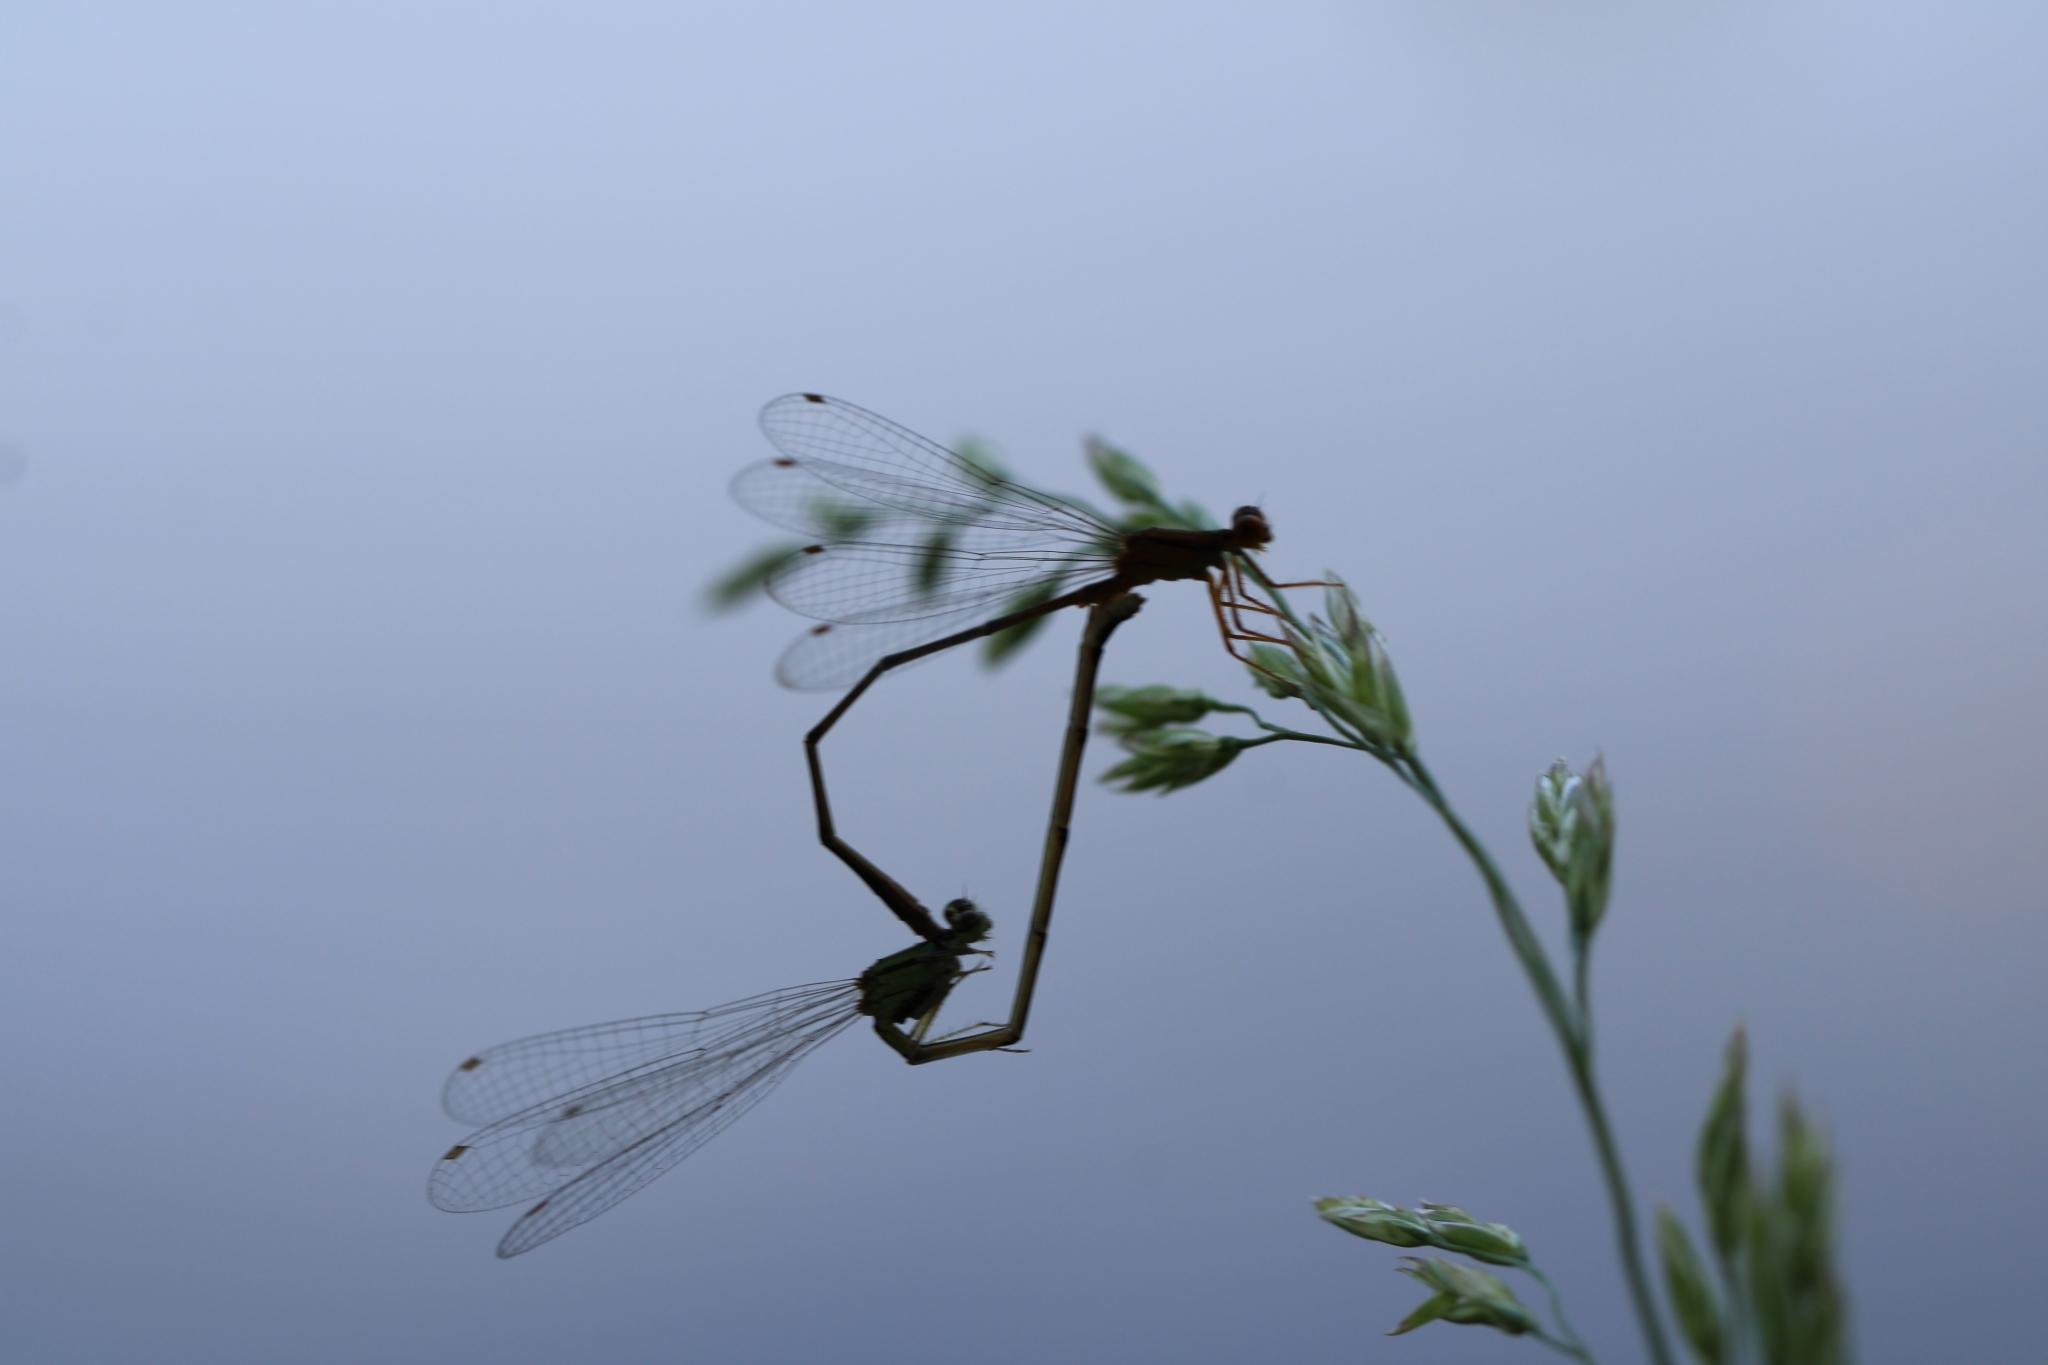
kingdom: Animalia
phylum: Arthropoda
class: Insecta
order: Odonata
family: Coenagrionidae
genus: Enallagma
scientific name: Enallagma signatum
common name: Orange bluet
